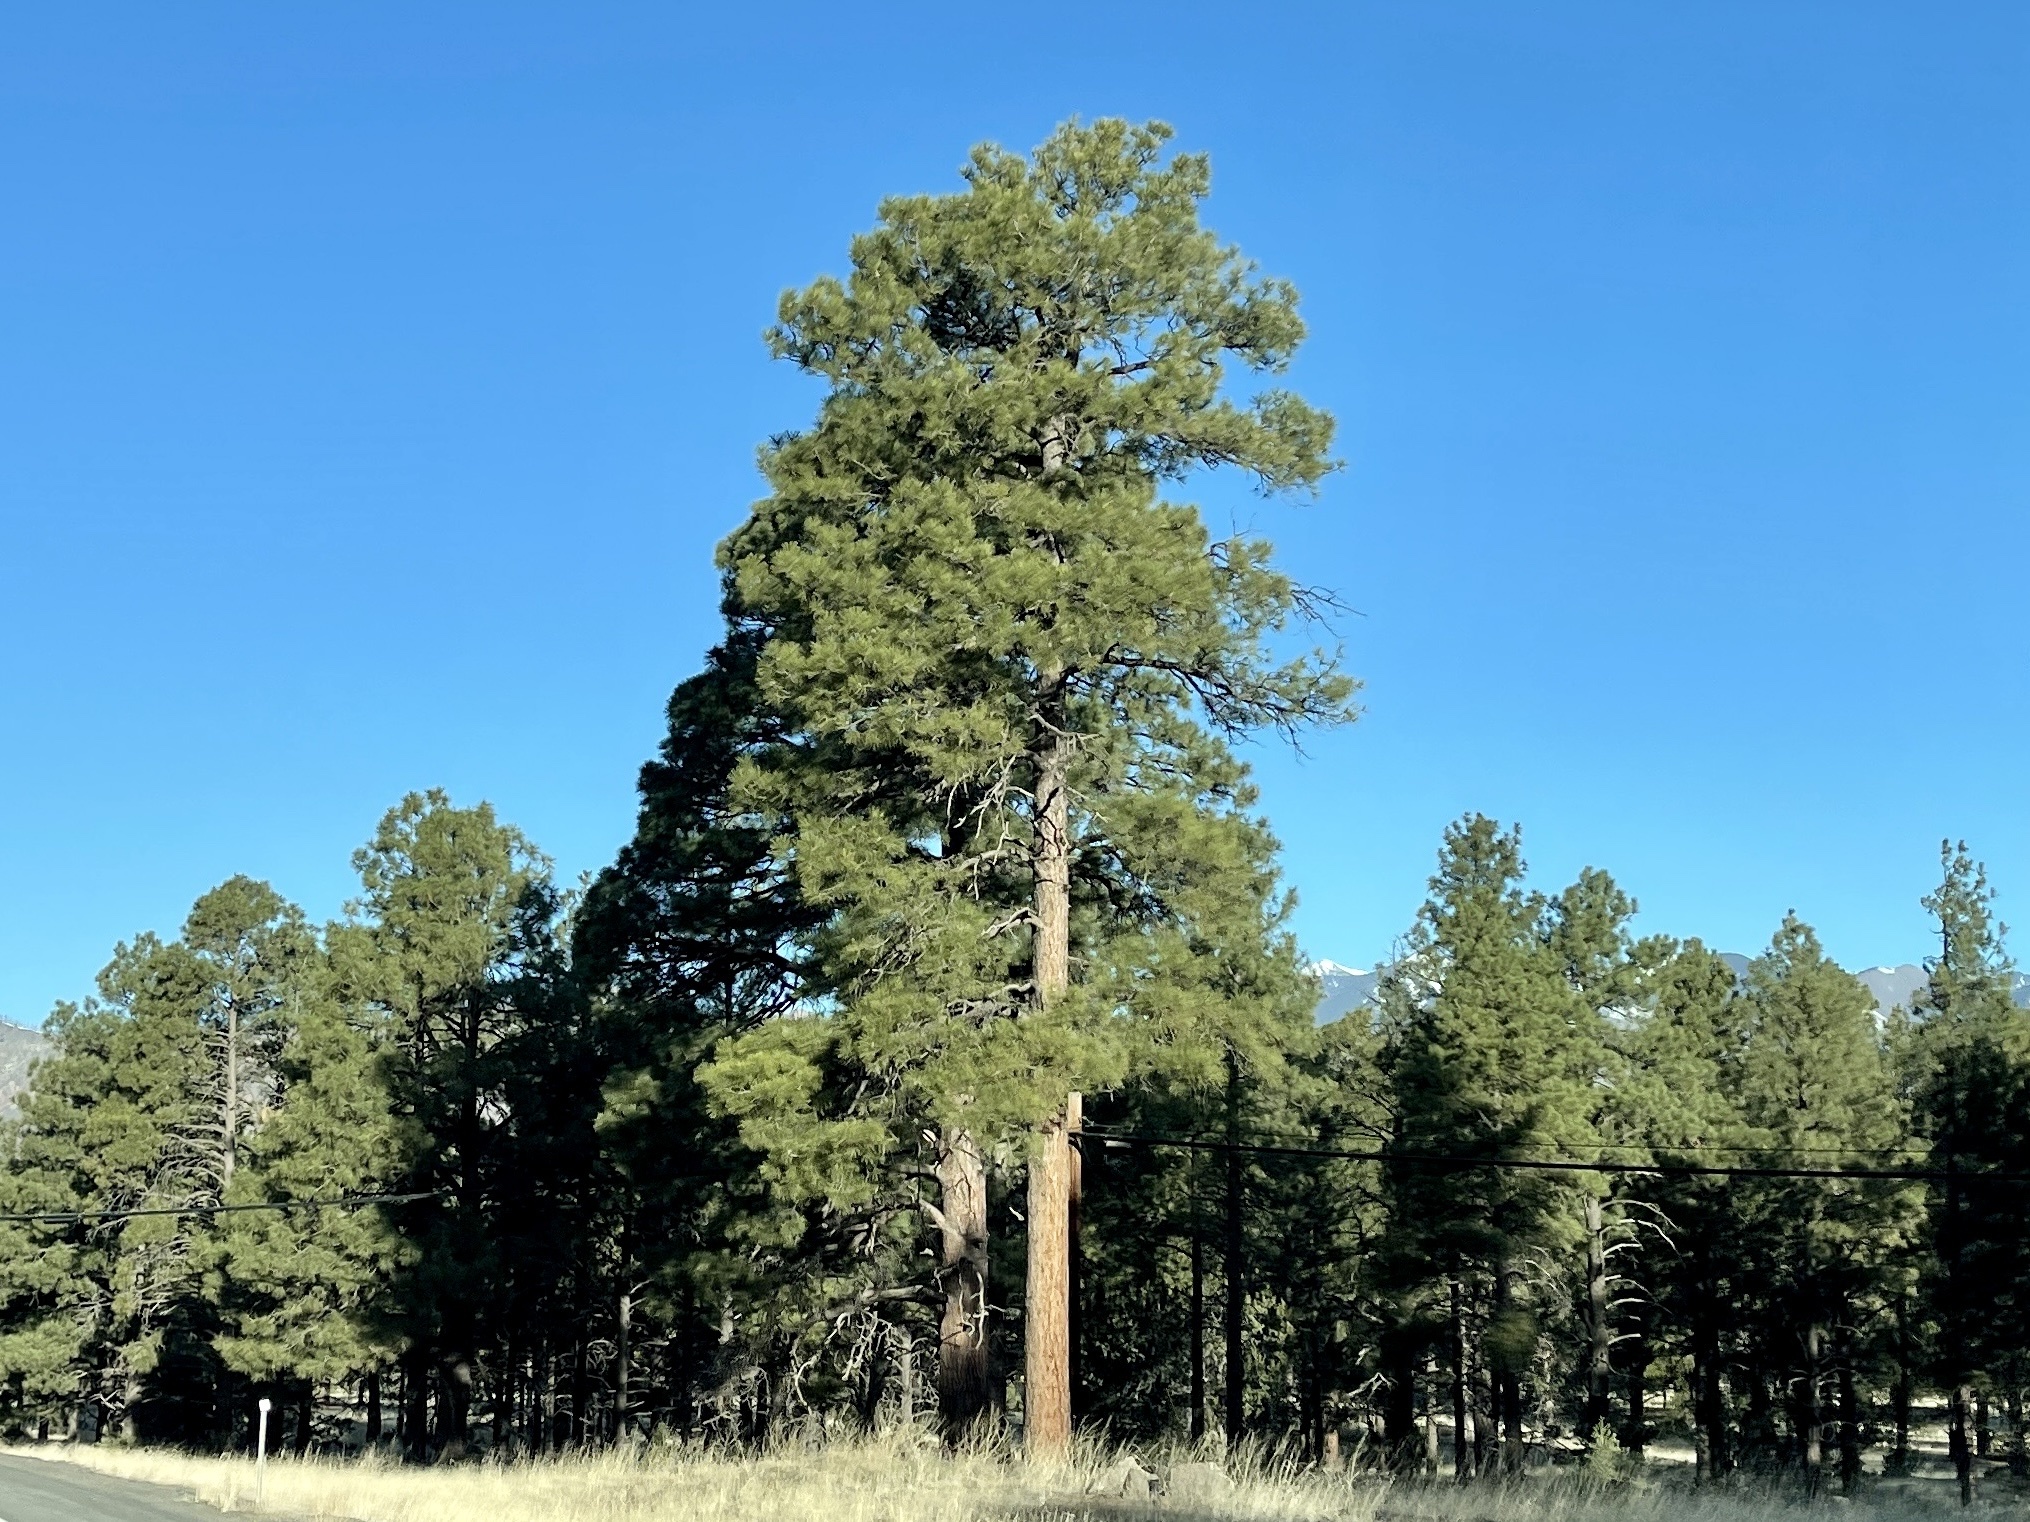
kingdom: Plantae
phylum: Tracheophyta
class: Pinopsida
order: Pinales
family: Pinaceae
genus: Pinus
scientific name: Pinus ponderosa
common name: Western yellow-pine
